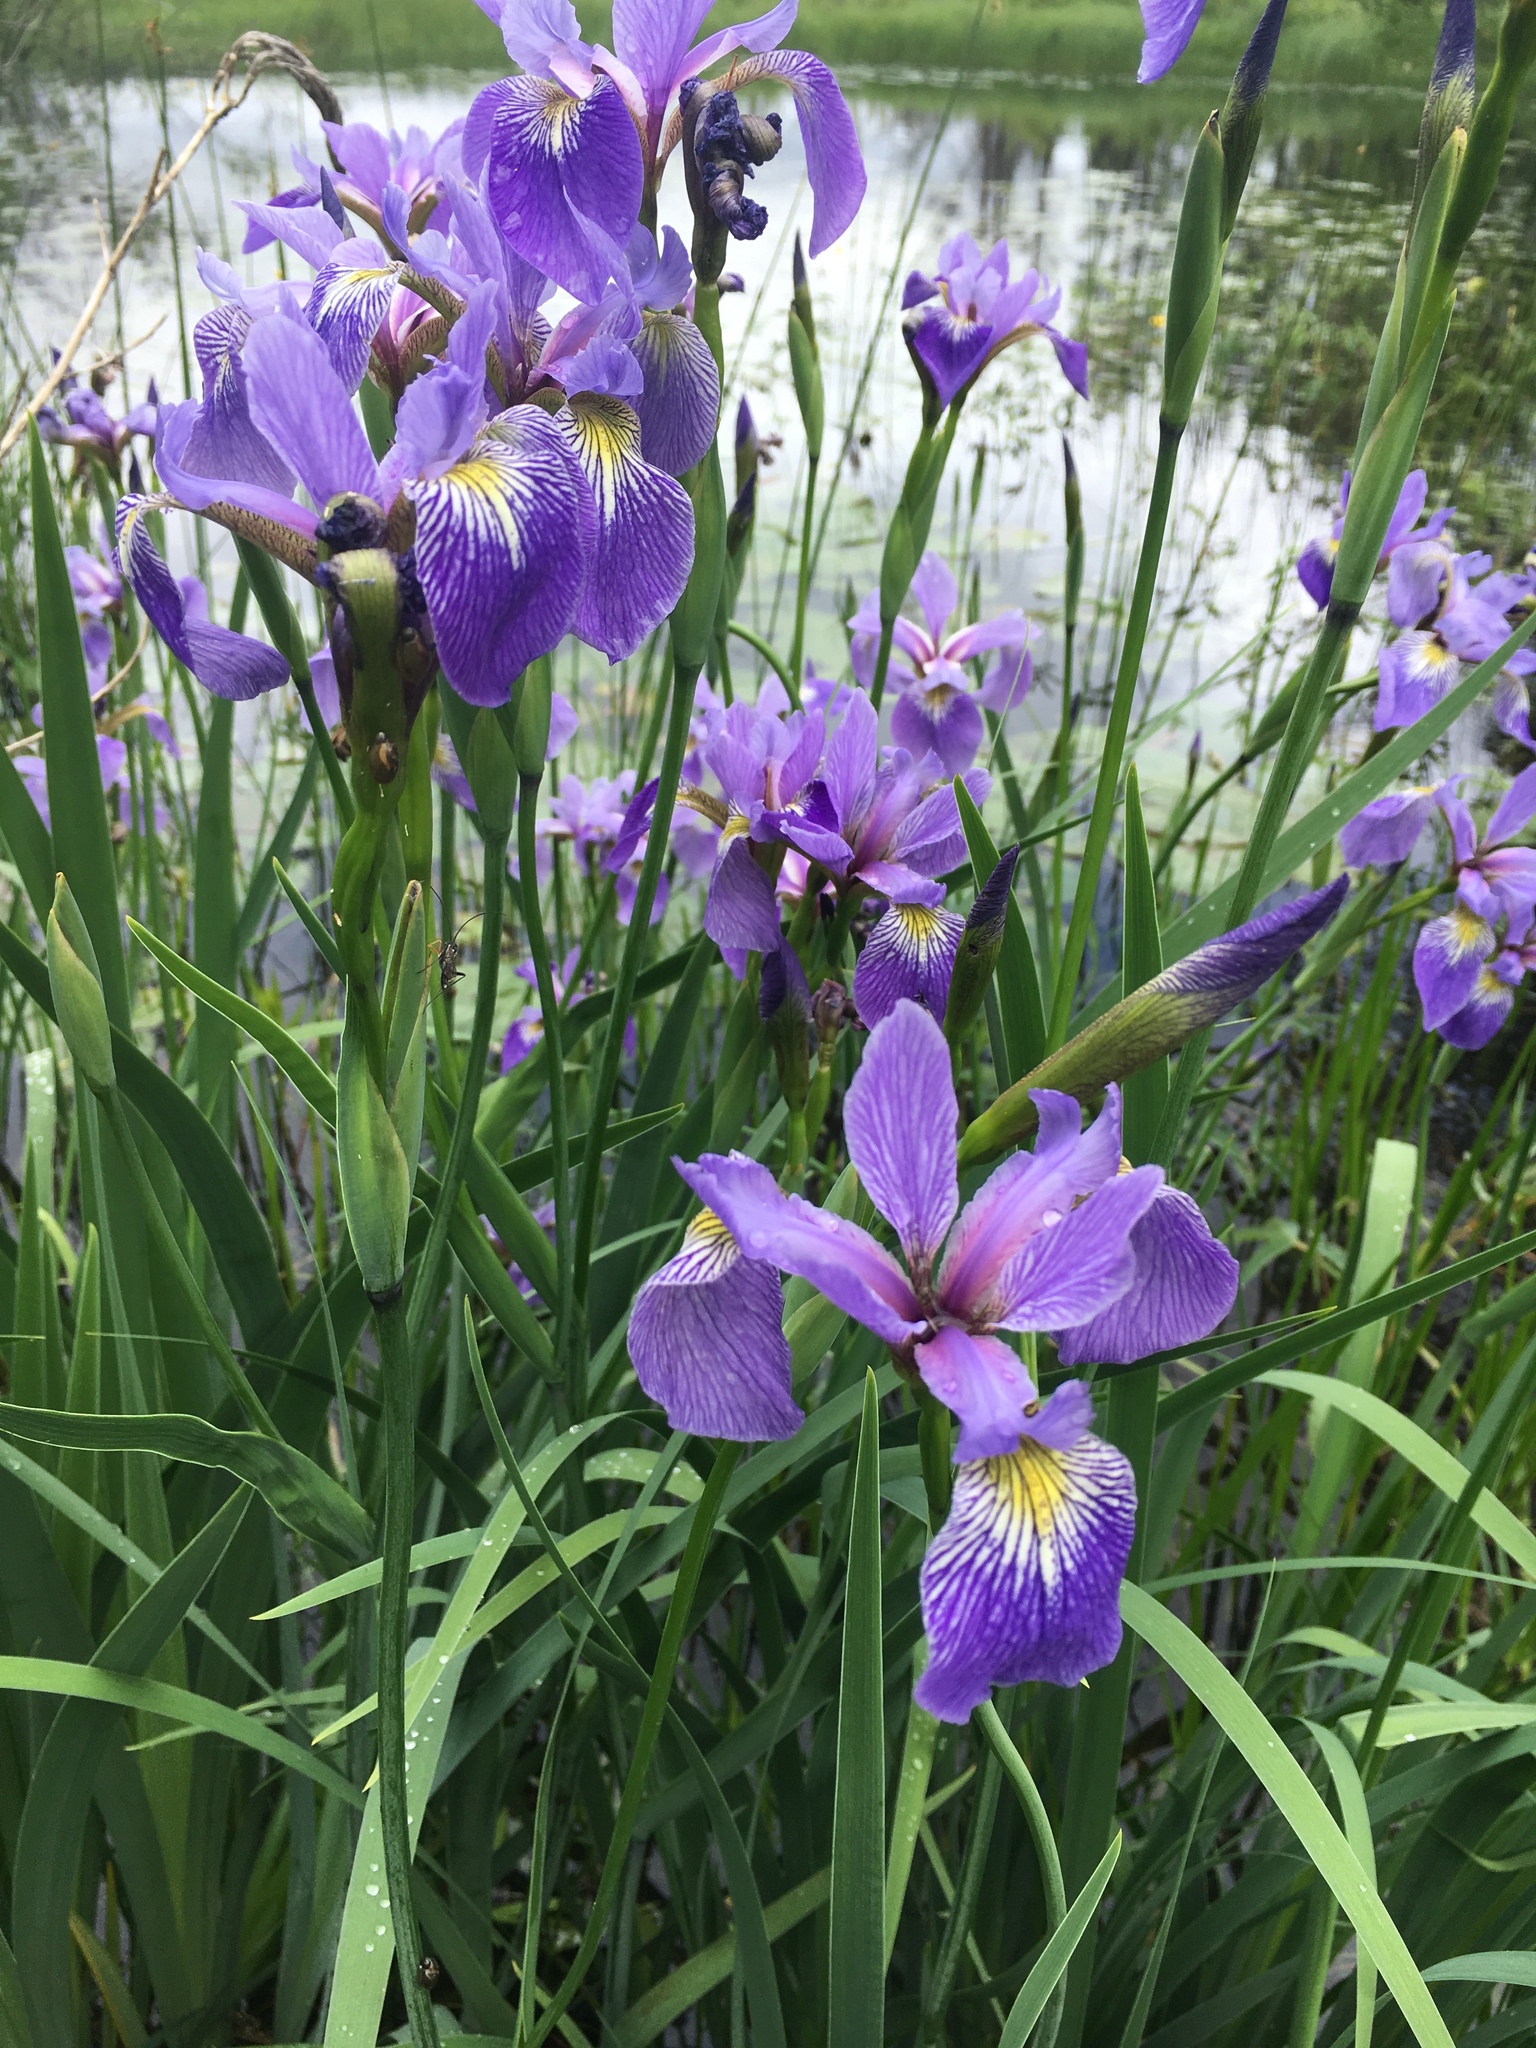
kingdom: Plantae
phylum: Tracheophyta
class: Liliopsida
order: Asparagales
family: Iridaceae
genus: Iris
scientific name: Iris versicolor
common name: Purple iris
